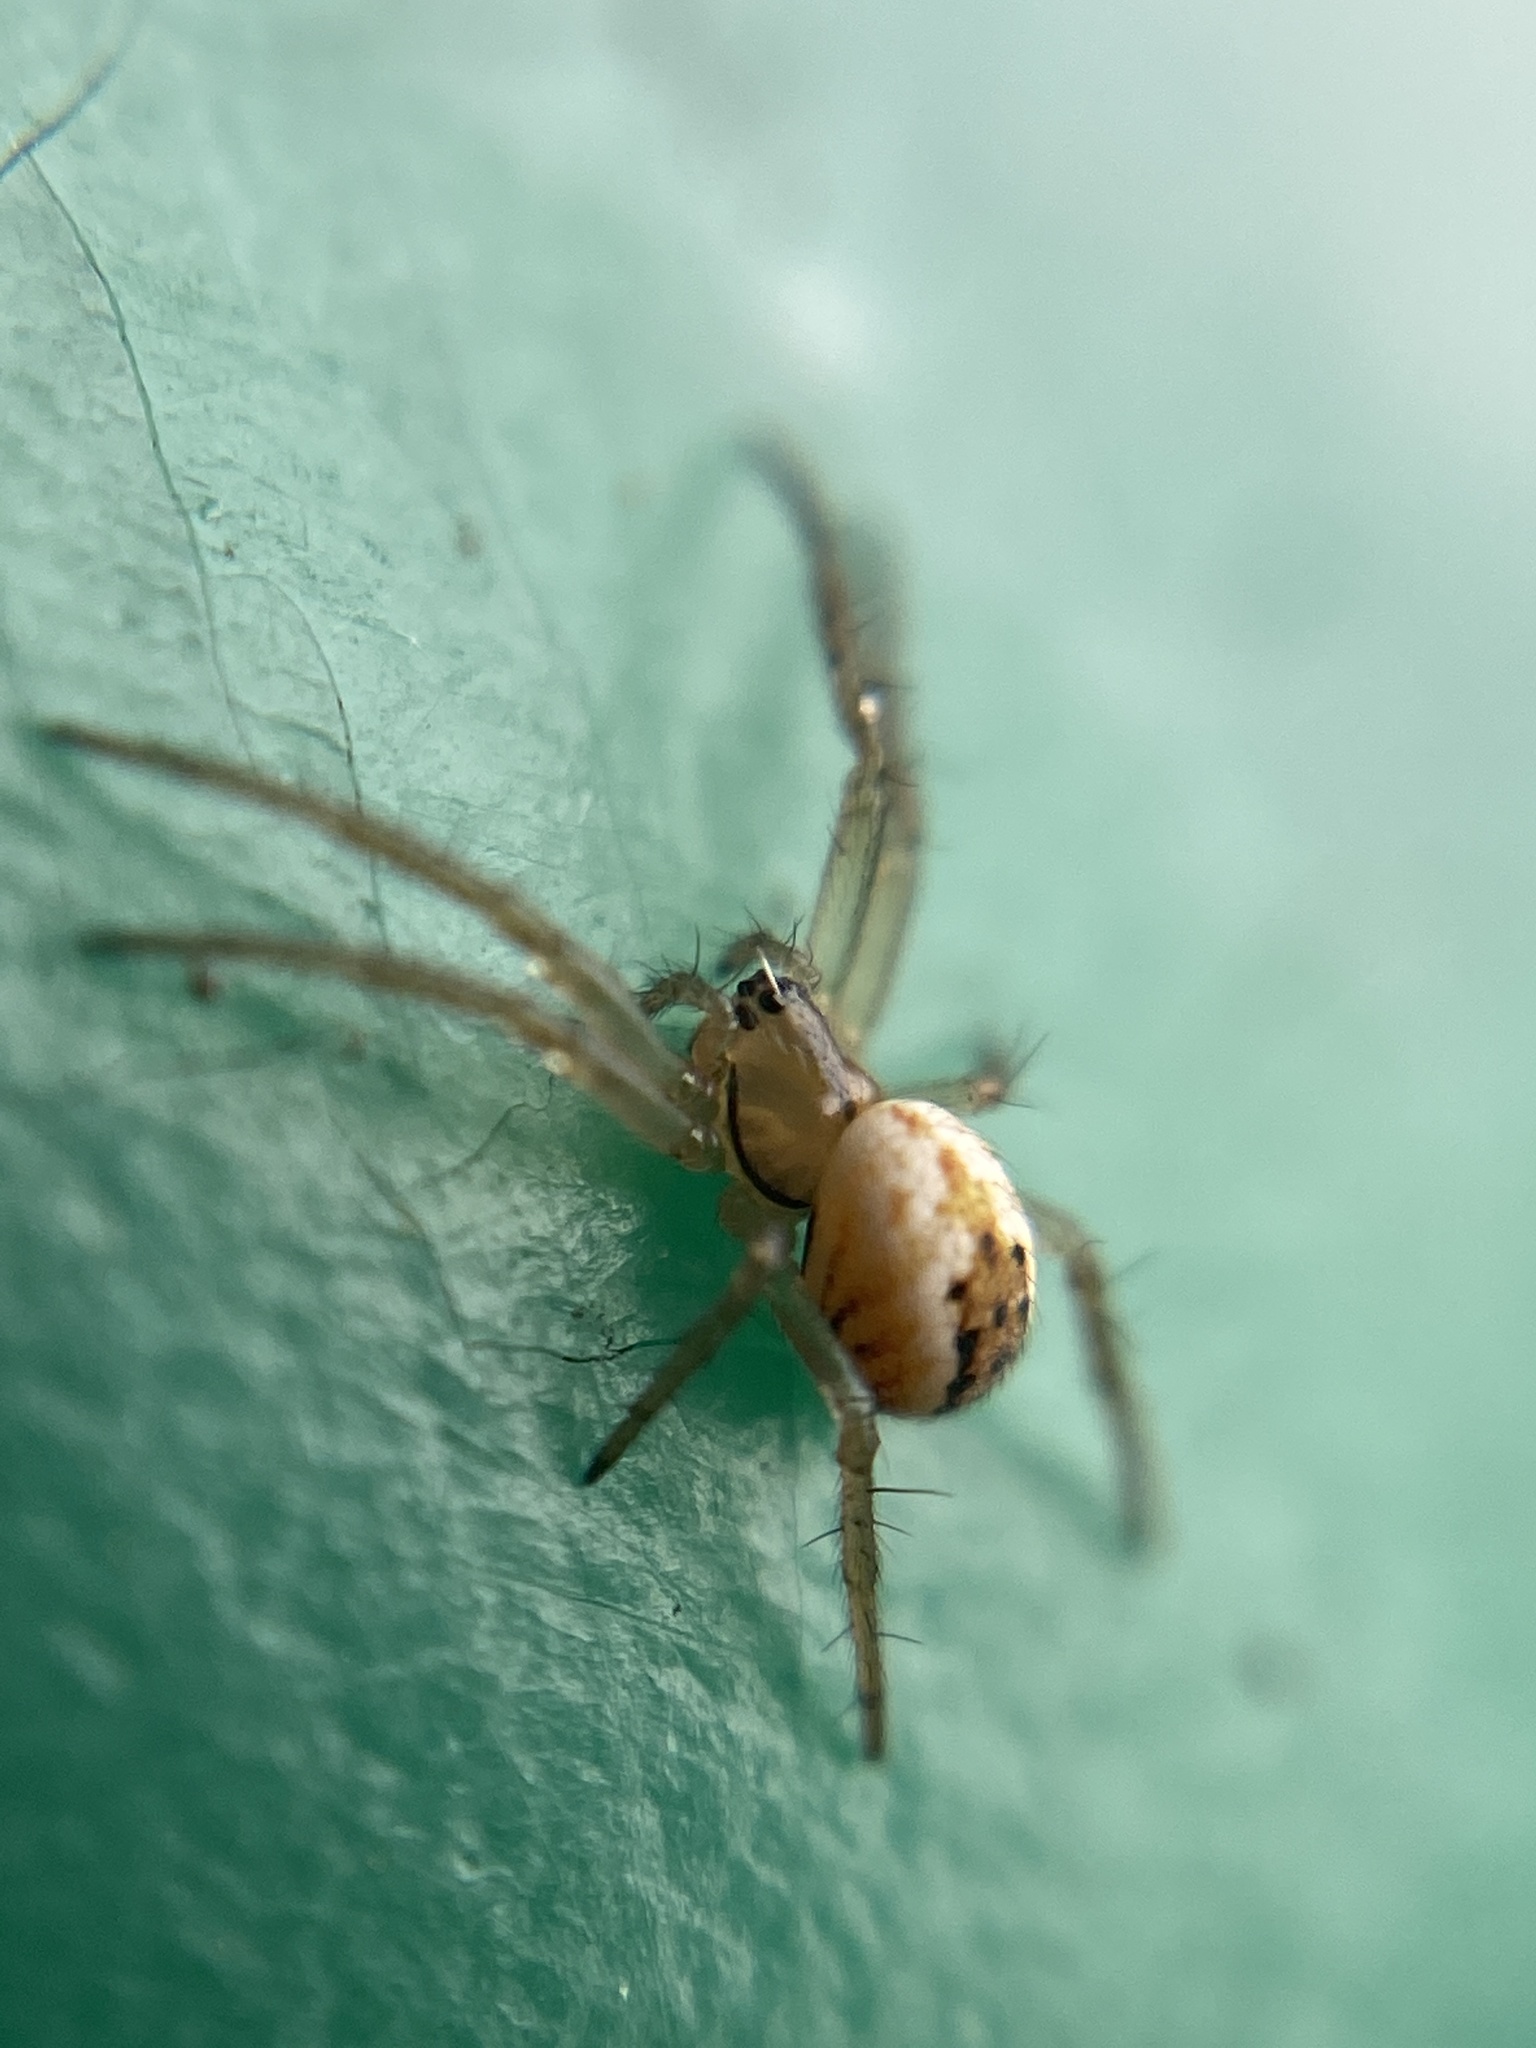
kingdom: Animalia
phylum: Arthropoda
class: Arachnida
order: Araneae
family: Araneidae
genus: Mangora
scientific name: Mangora acalypha
